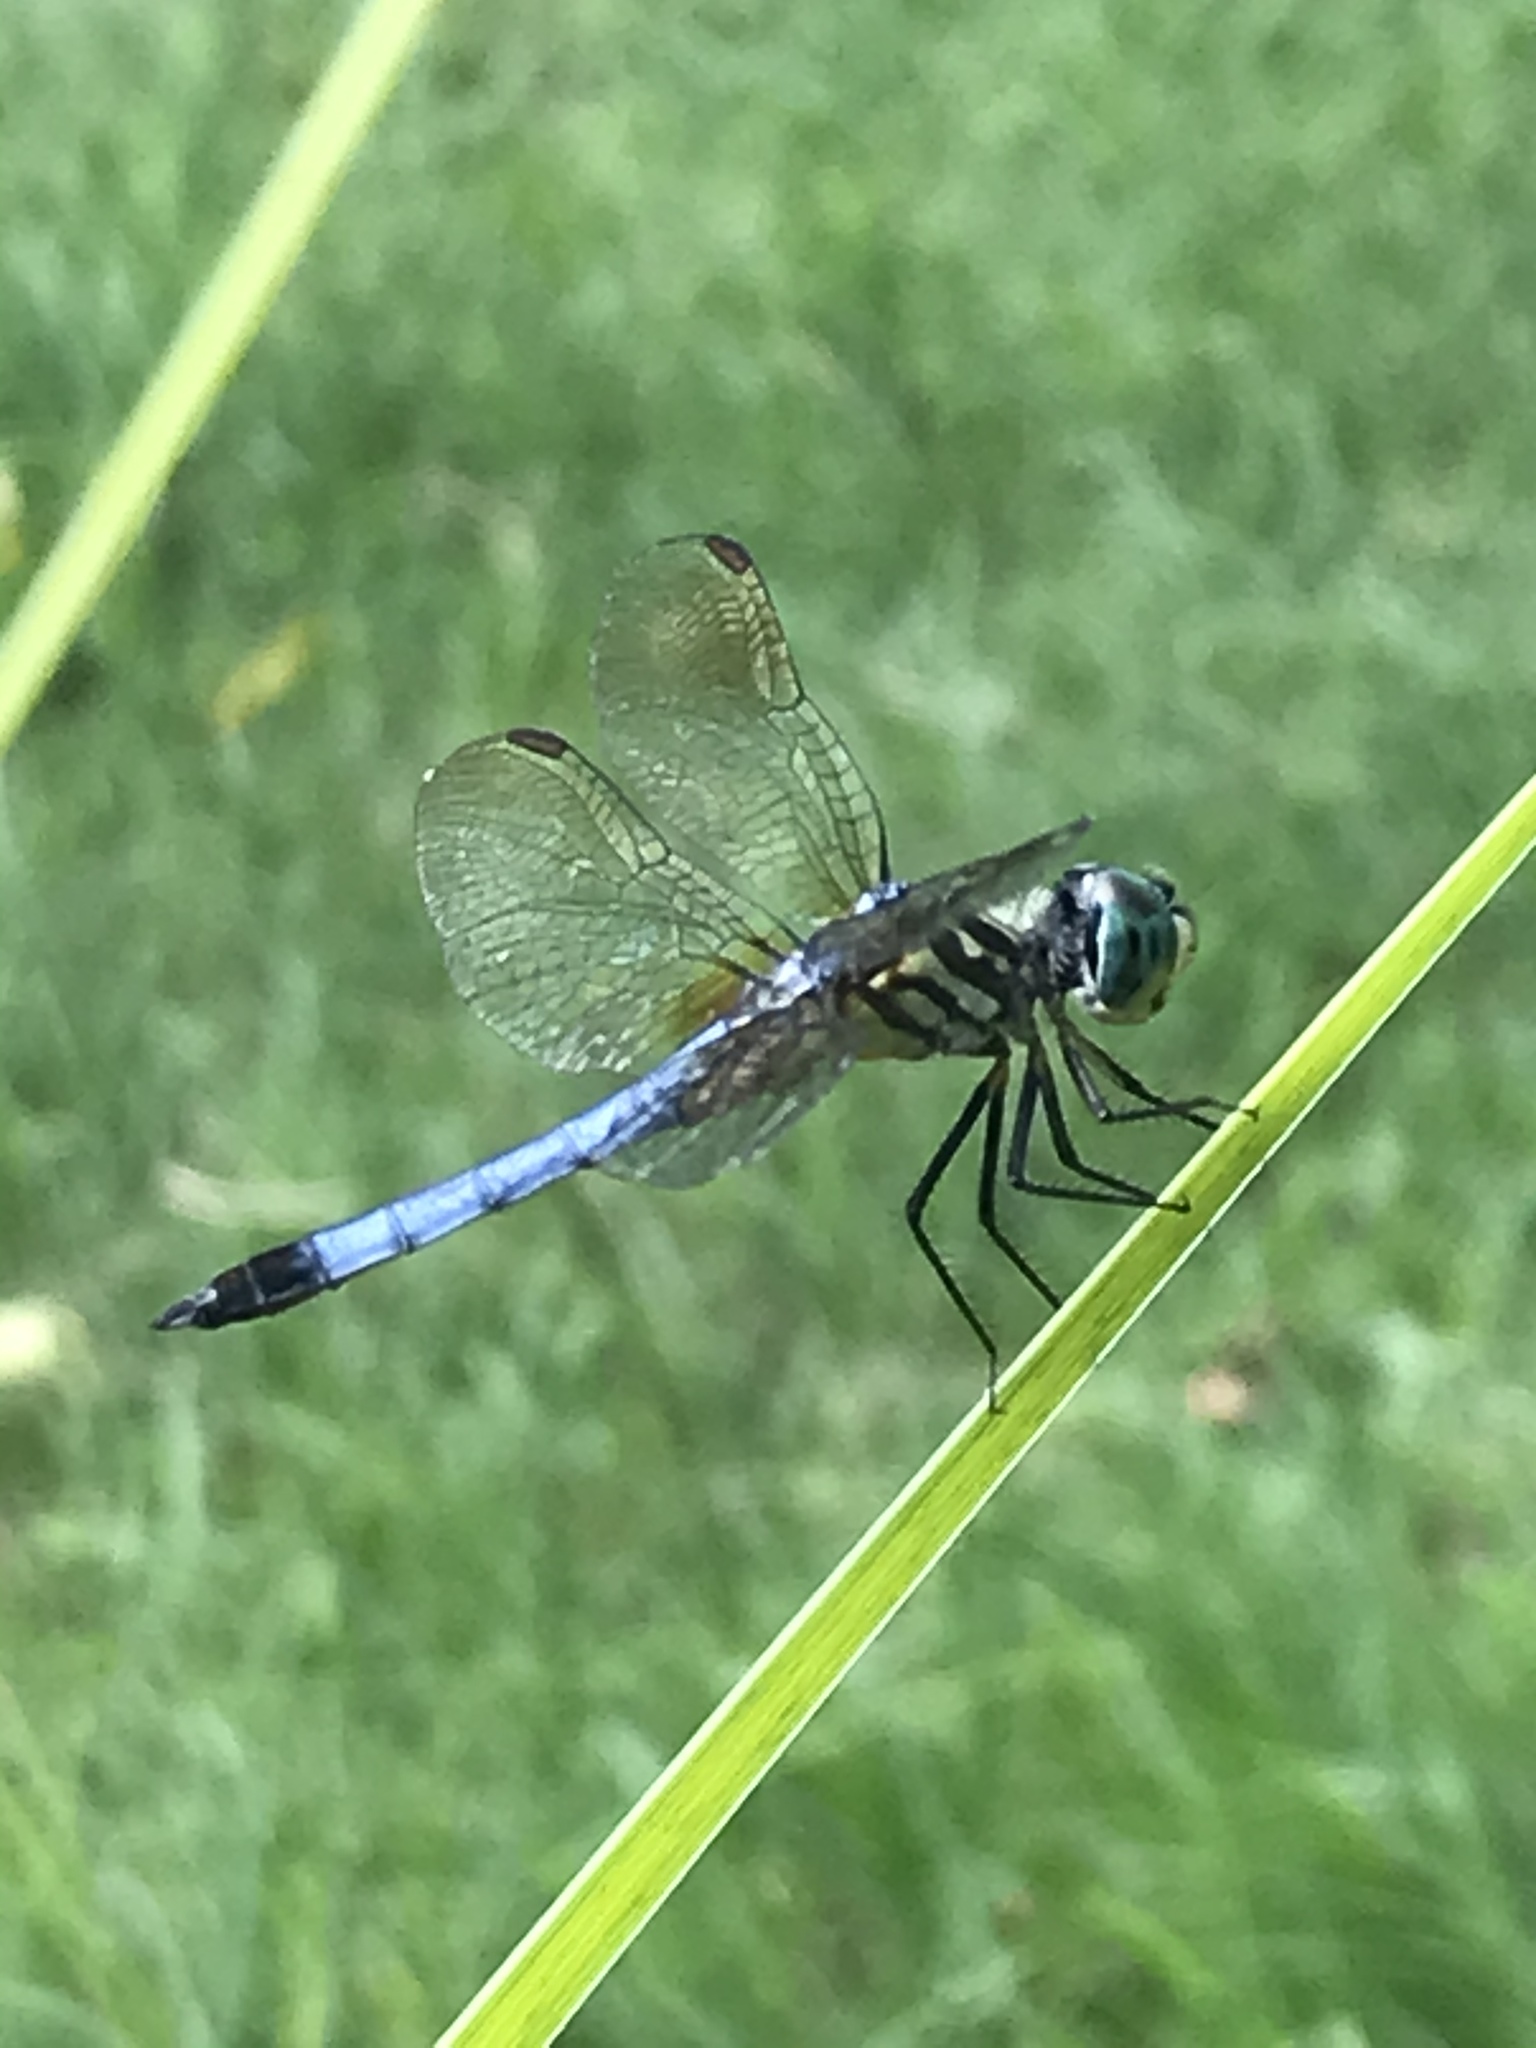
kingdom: Animalia
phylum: Arthropoda
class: Insecta
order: Odonata
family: Libellulidae
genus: Pachydiplax
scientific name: Pachydiplax longipennis
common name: Blue dasher
